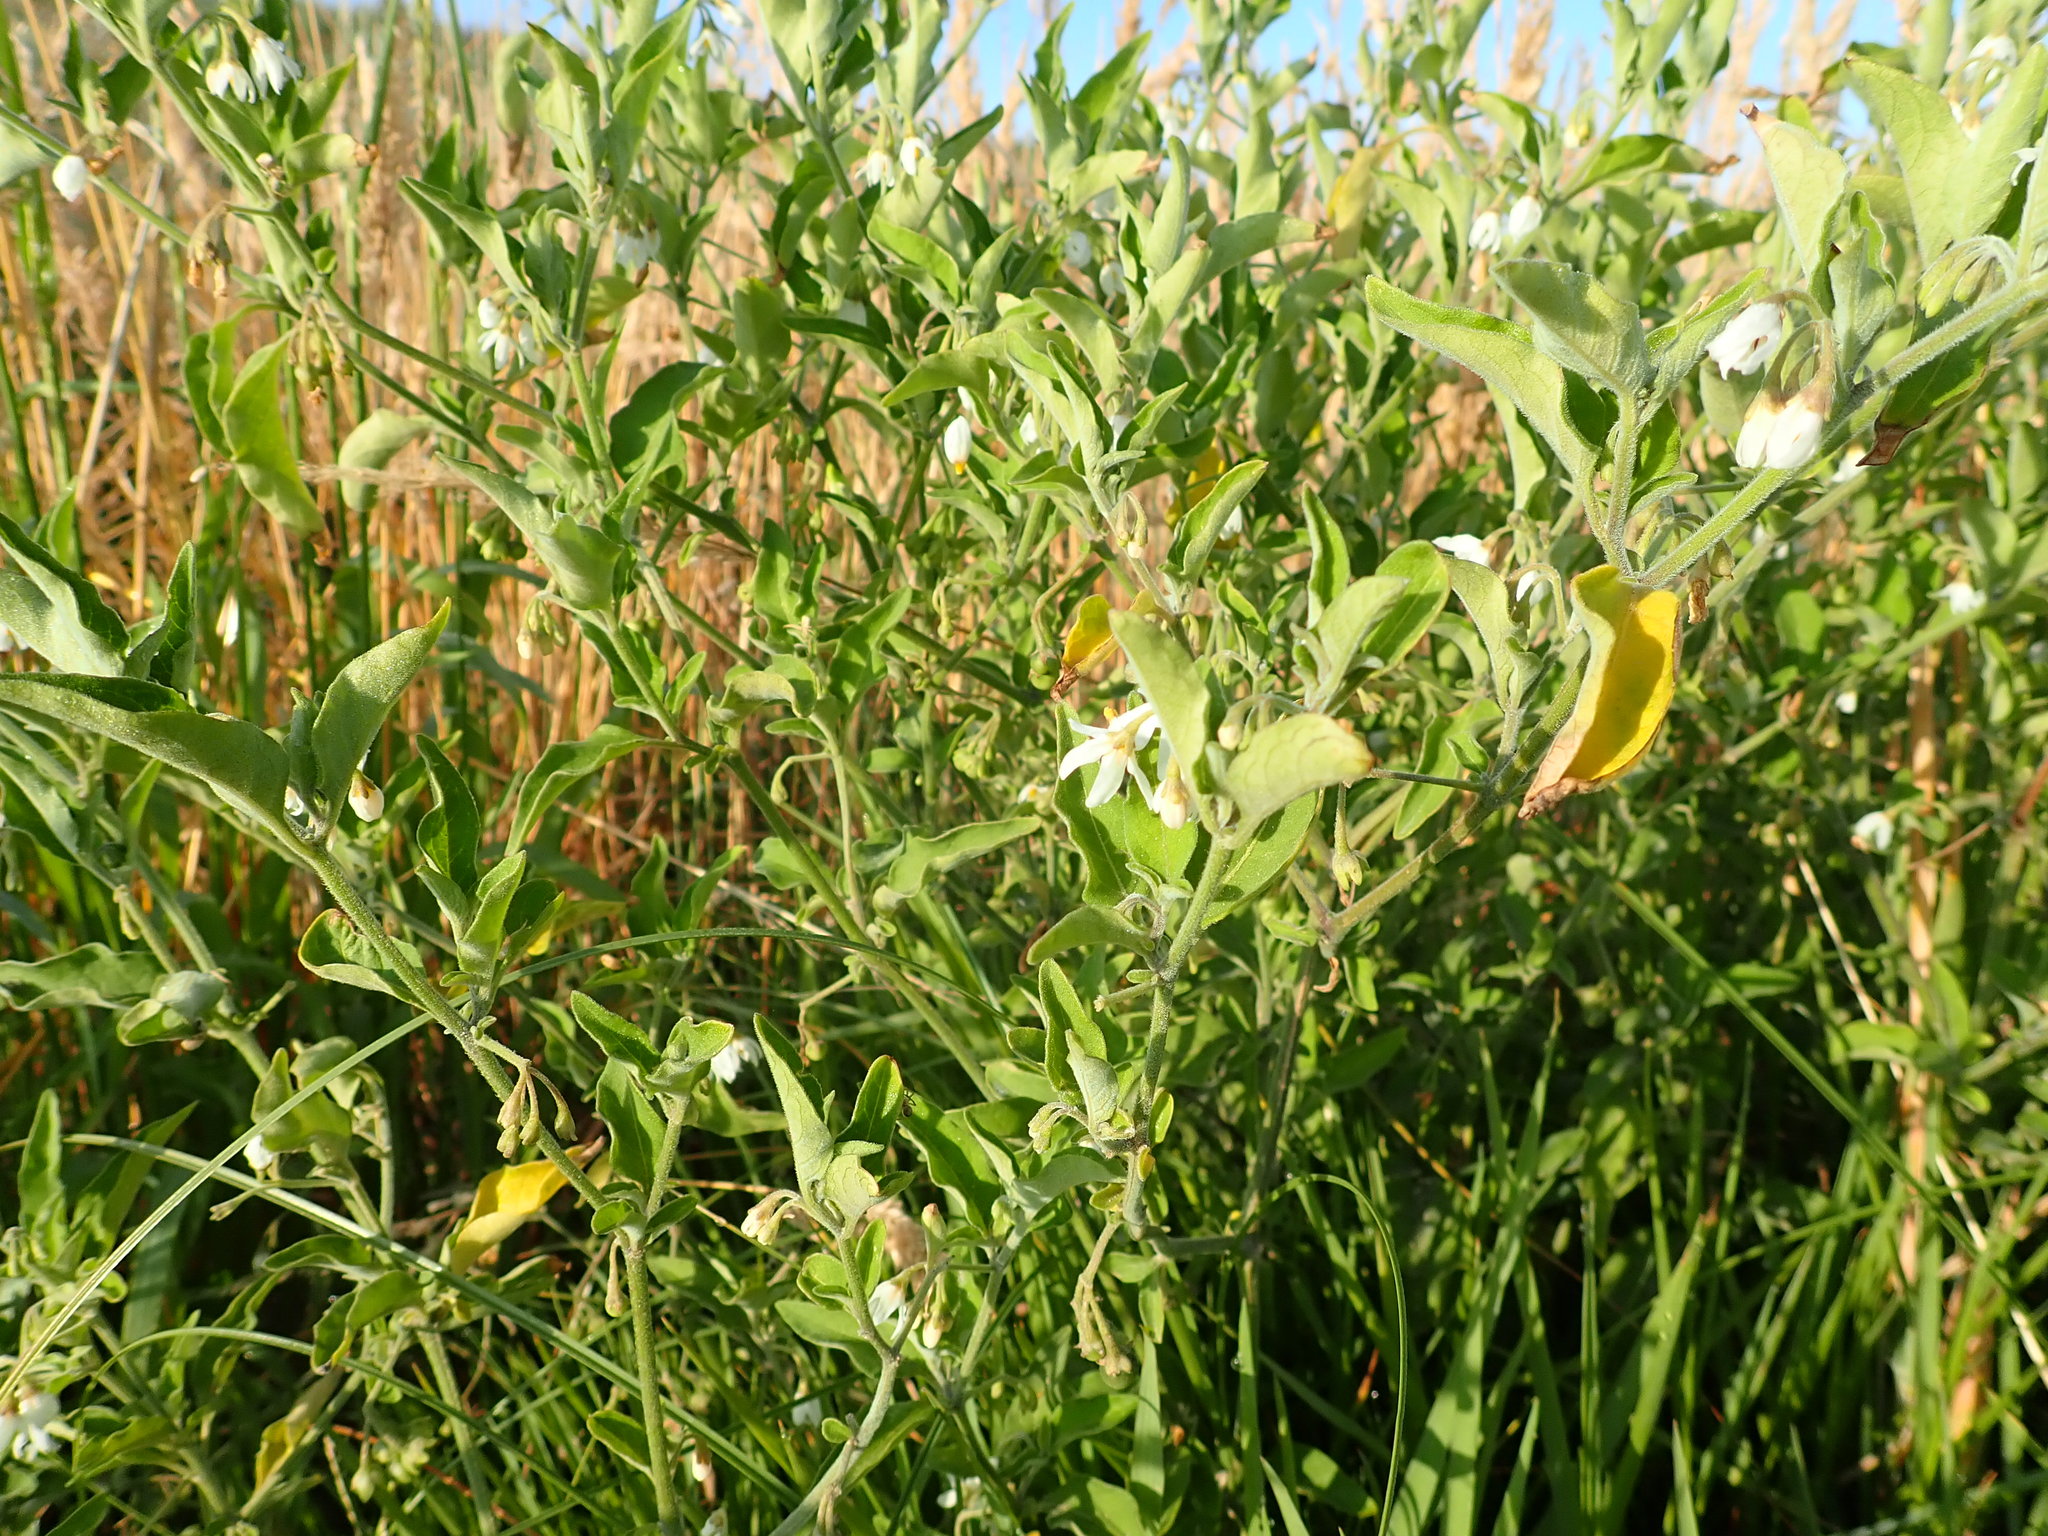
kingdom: Plantae
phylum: Tracheophyta
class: Magnoliopsida
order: Solanales
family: Solanaceae
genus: Solanum
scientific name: Solanum chenopodioides
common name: Tall nightshade
